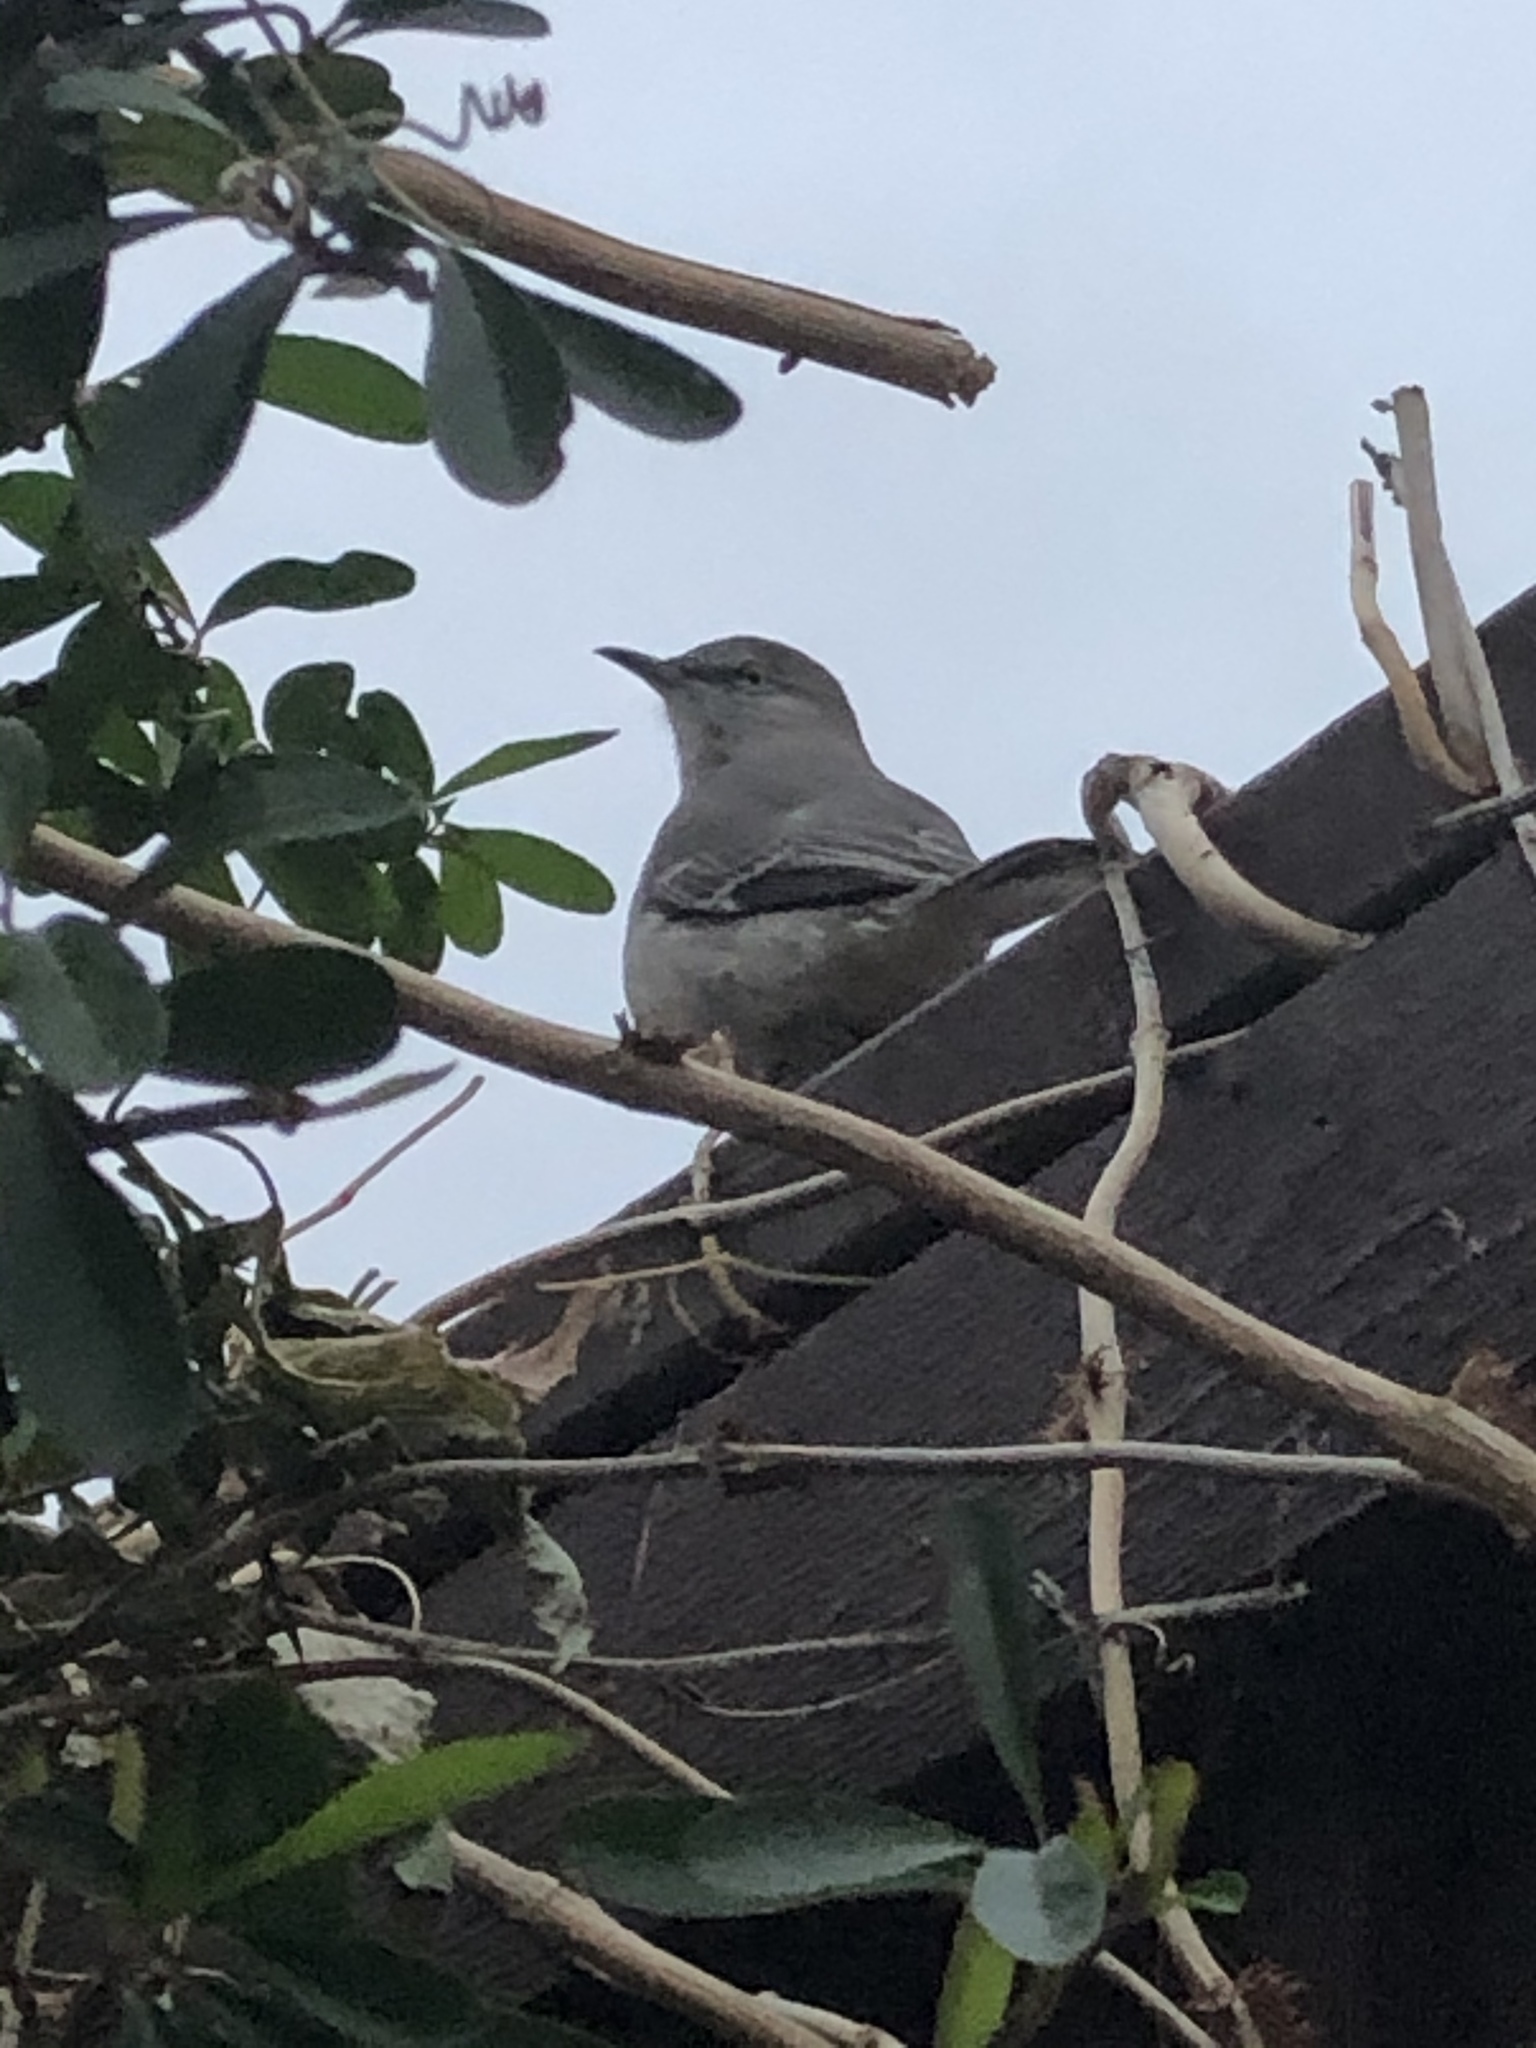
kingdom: Animalia
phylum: Chordata
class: Aves
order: Passeriformes
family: Mimidae
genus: Mimus
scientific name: Mimus polyglottos
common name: Northern mockingbird
